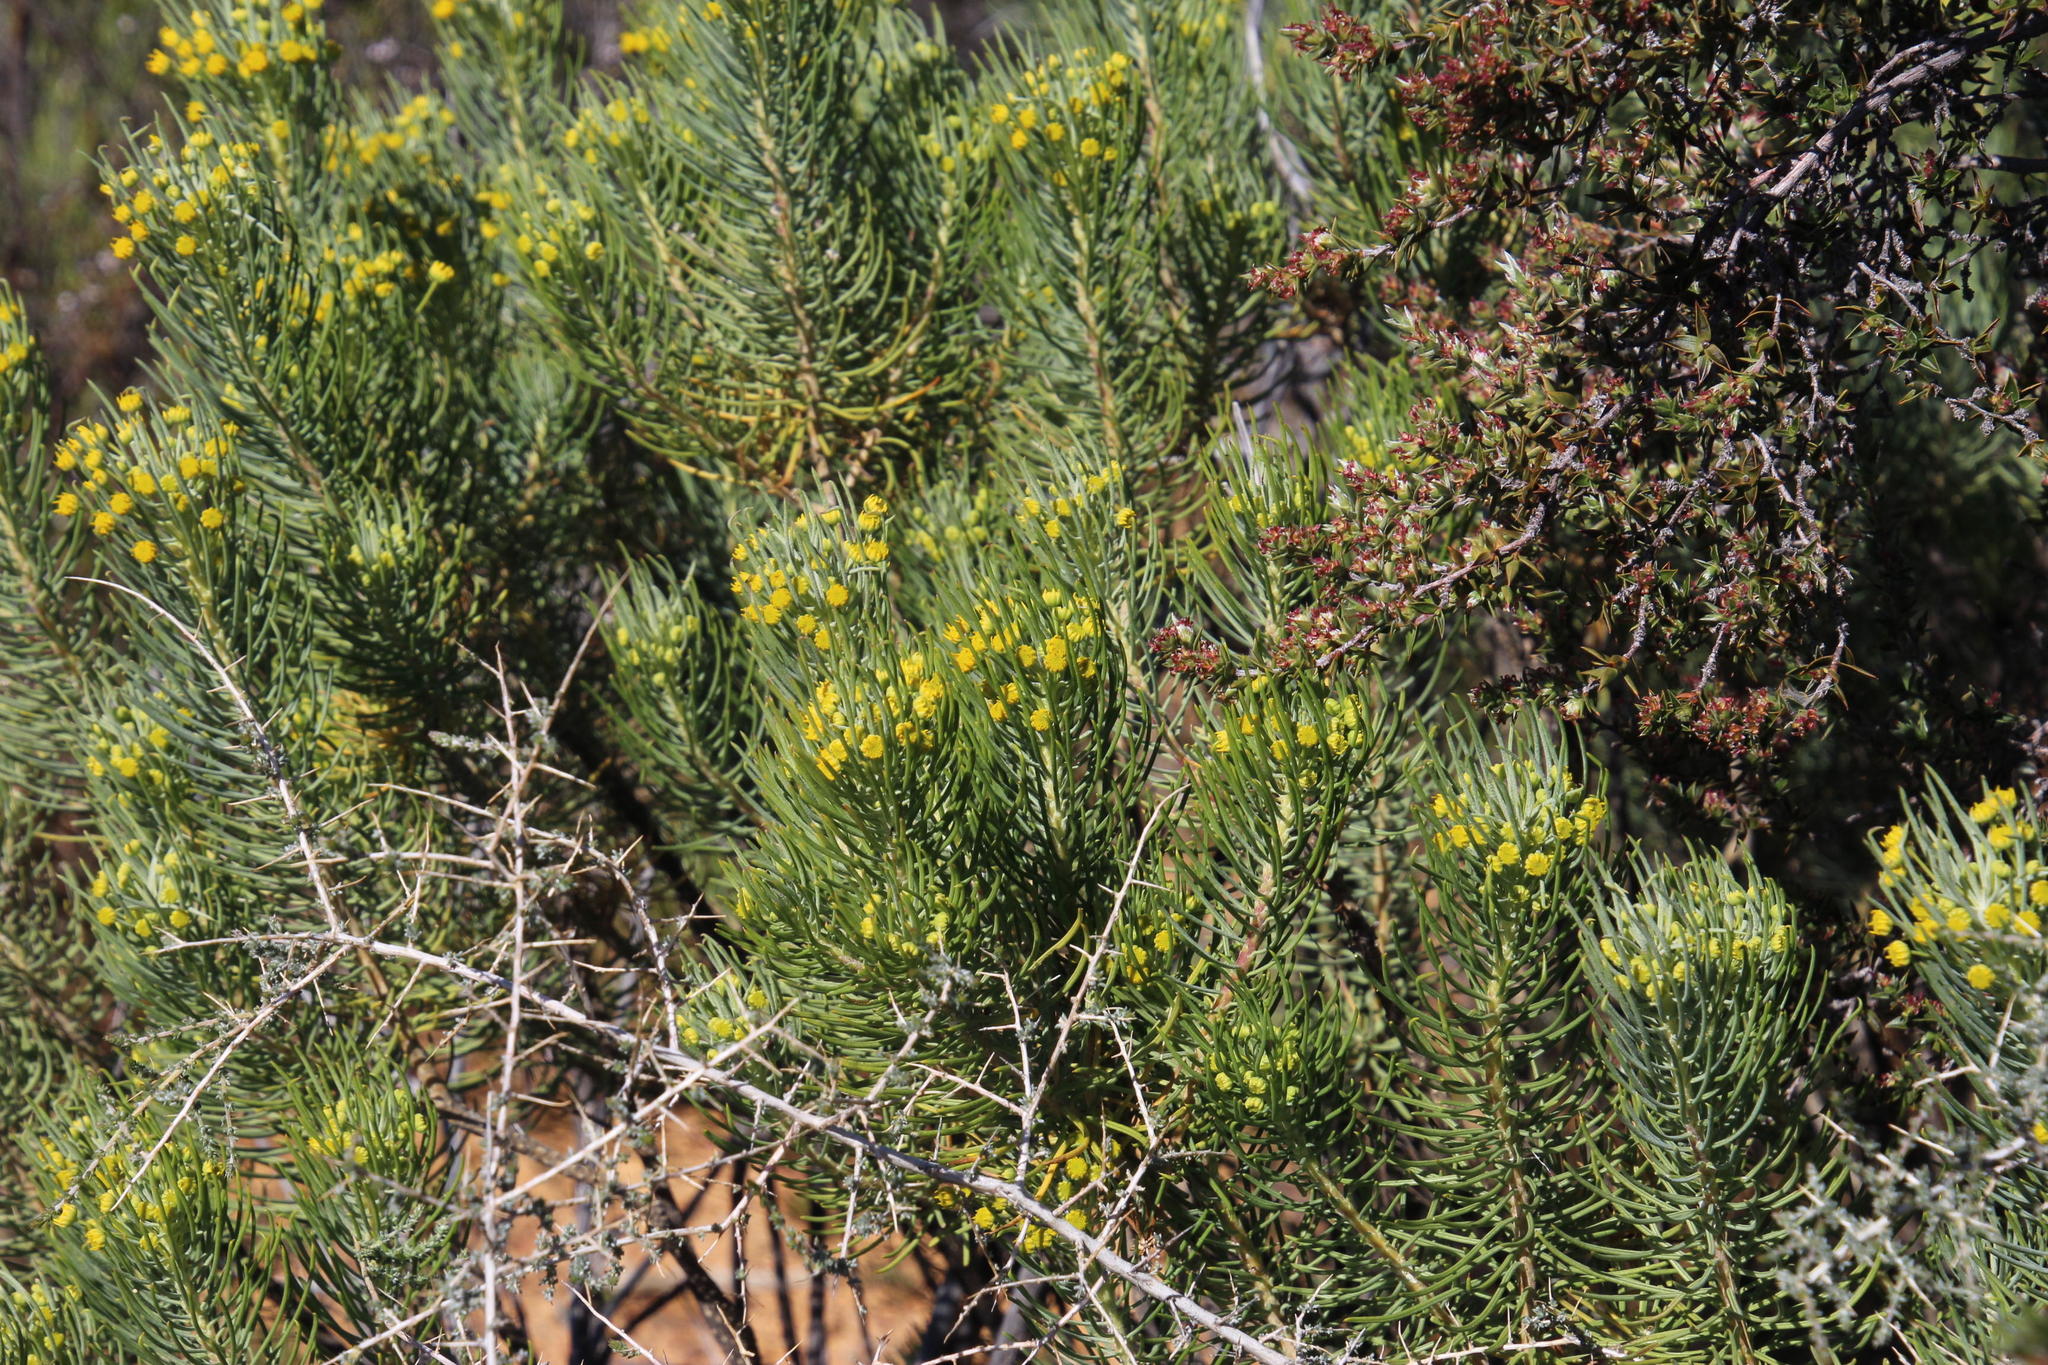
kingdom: Plantae
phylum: Tracheophyta
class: Magnoliopsida
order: Asterales
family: Asteraceae
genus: Euryops
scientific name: Euryops tenuissimus
